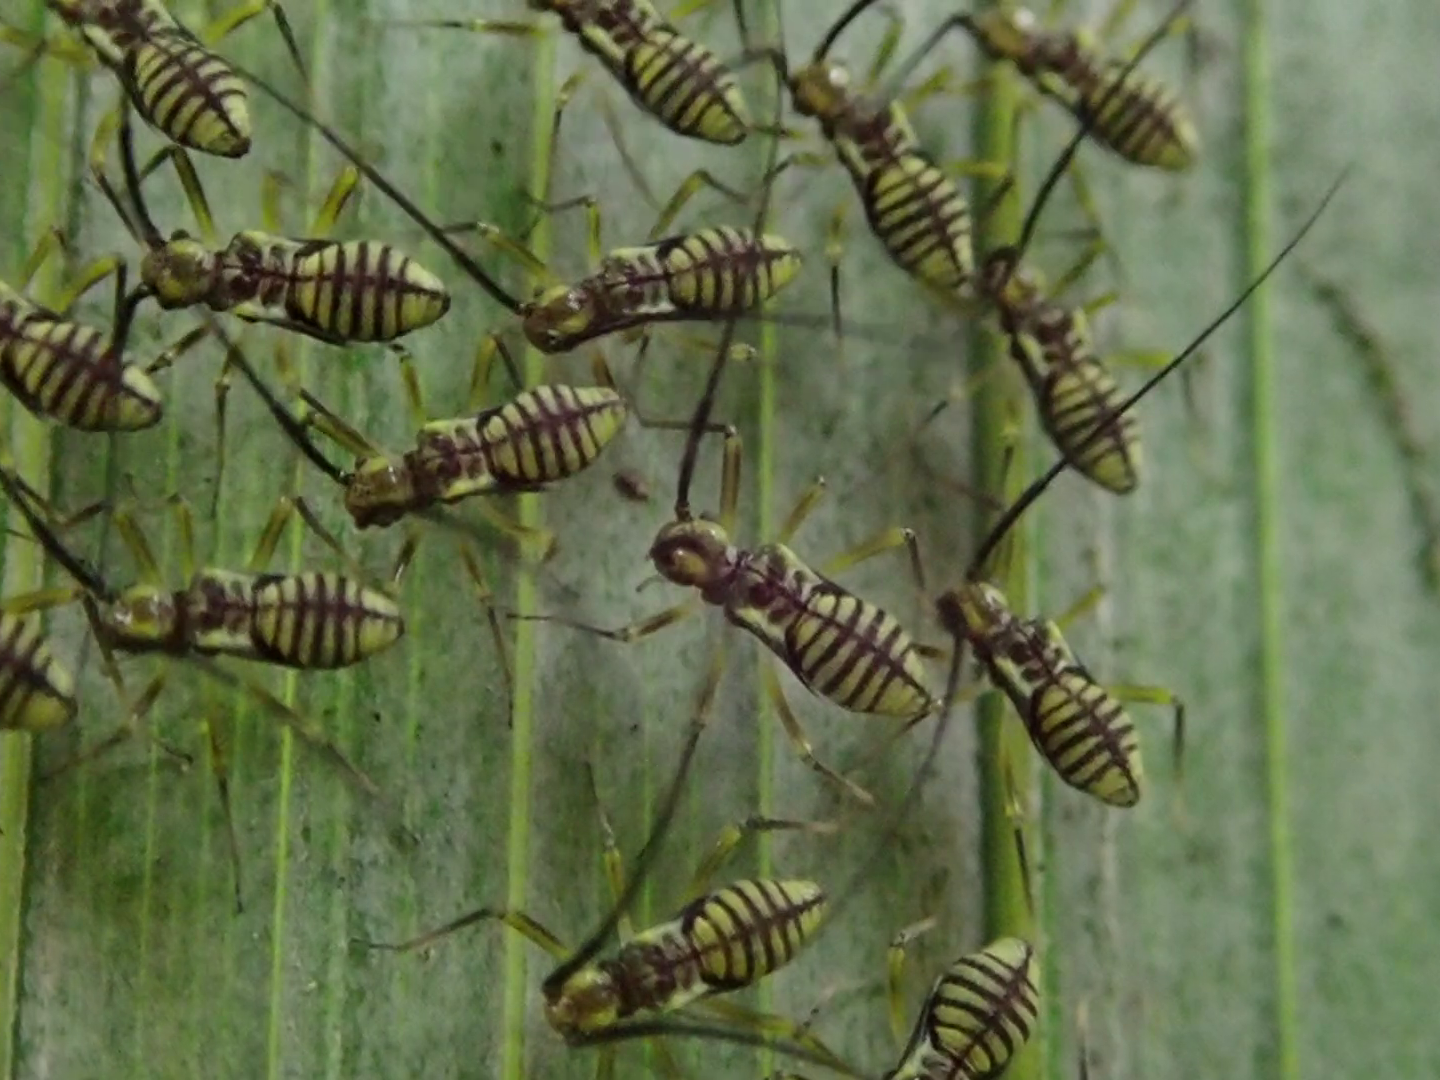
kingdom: Animalia
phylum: Arthropoda
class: Insecta
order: Psocodea
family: Psocidae
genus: Dictyopsocus
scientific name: Dictyopsocus pennicornis
